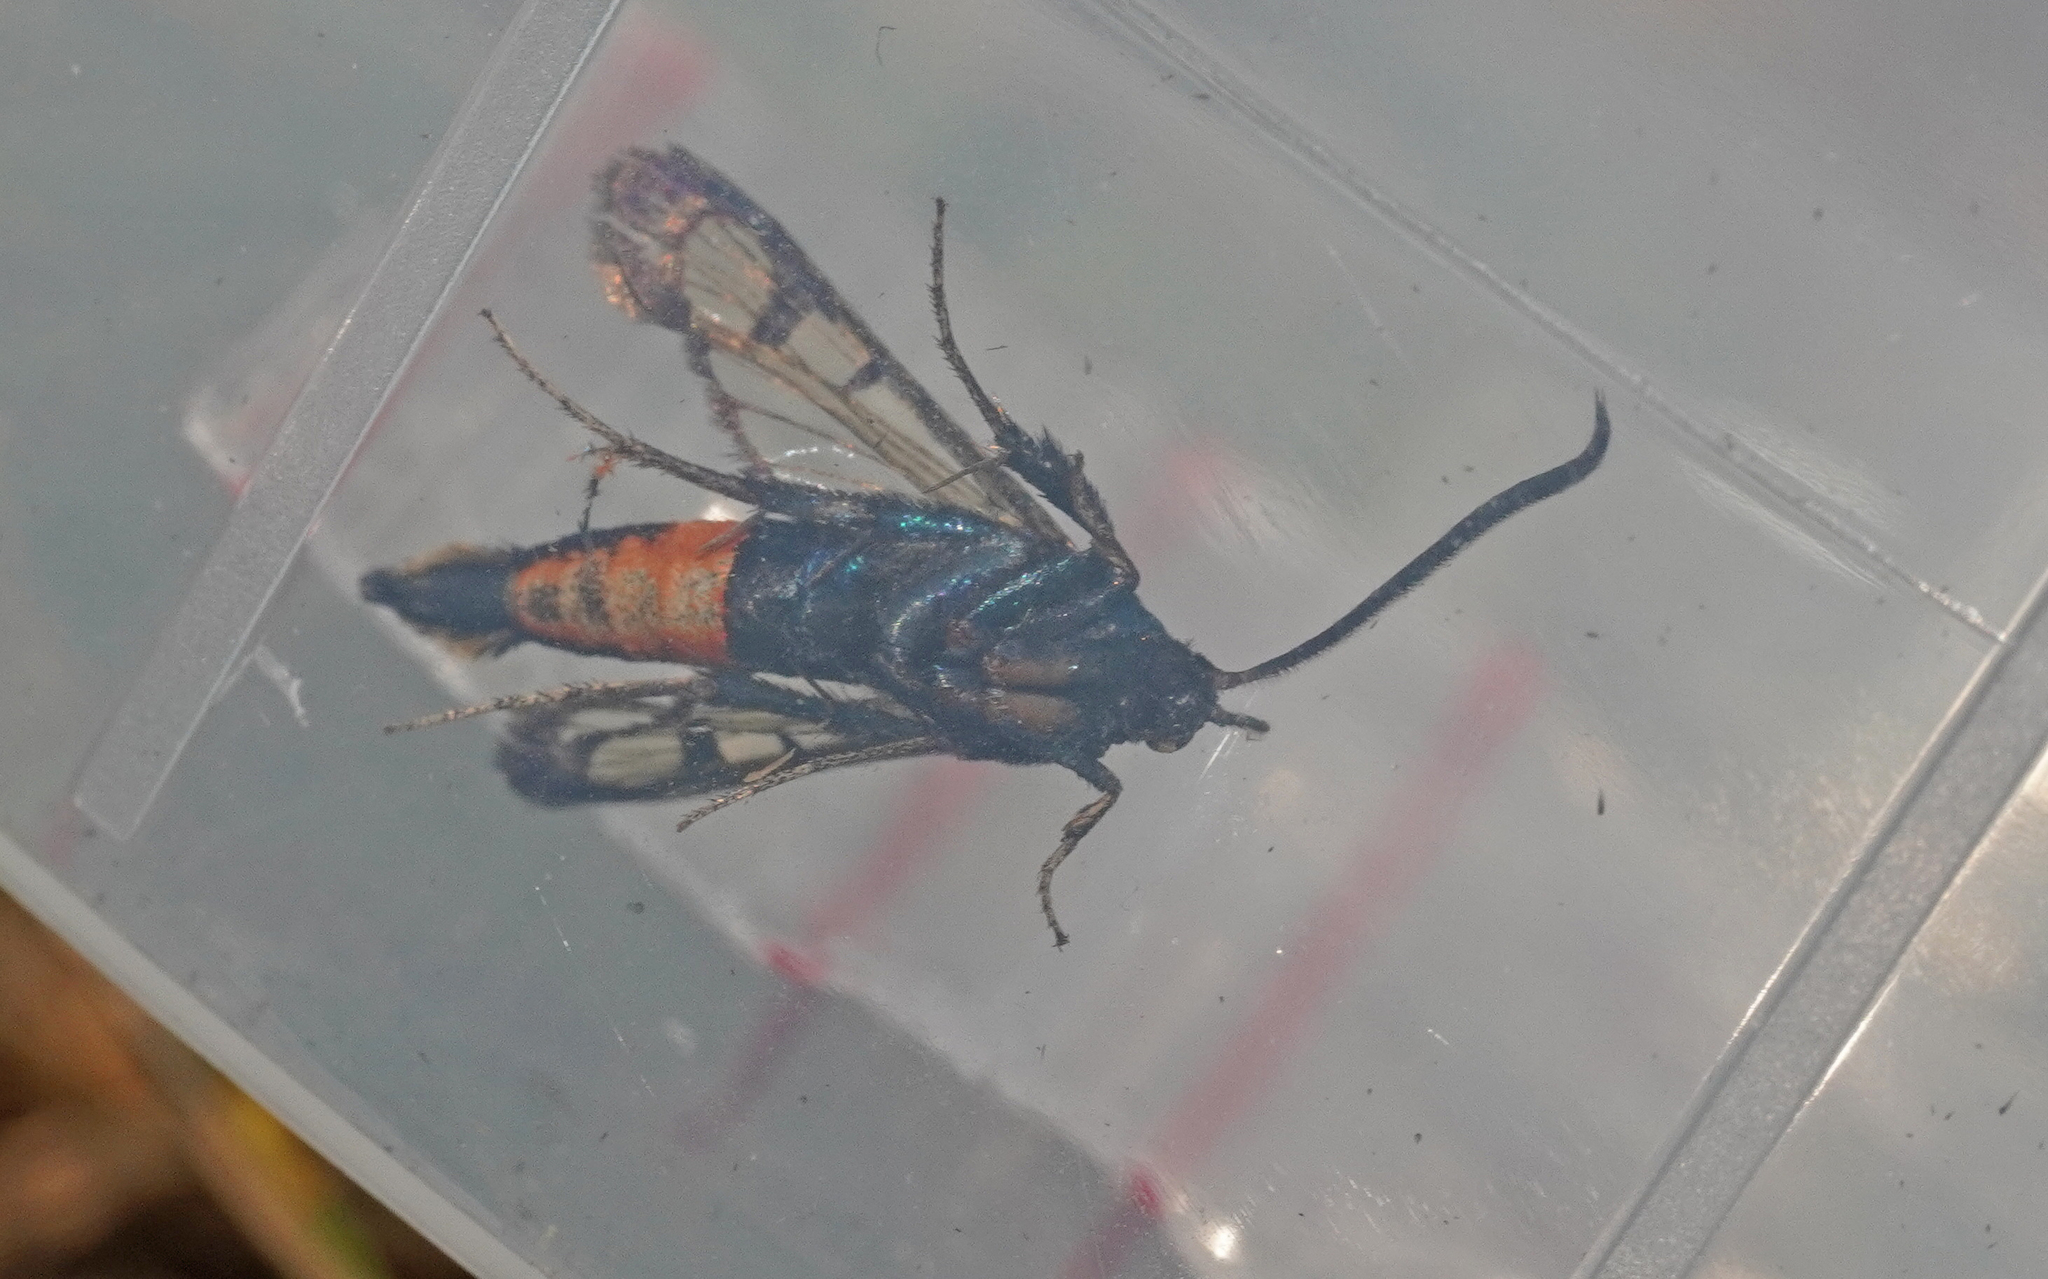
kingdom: Animalia
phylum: Arthropoda
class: Insecta
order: Lepidoptera
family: Sesiidae
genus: Synanthedon
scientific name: Synanthedon stomoxiformis
